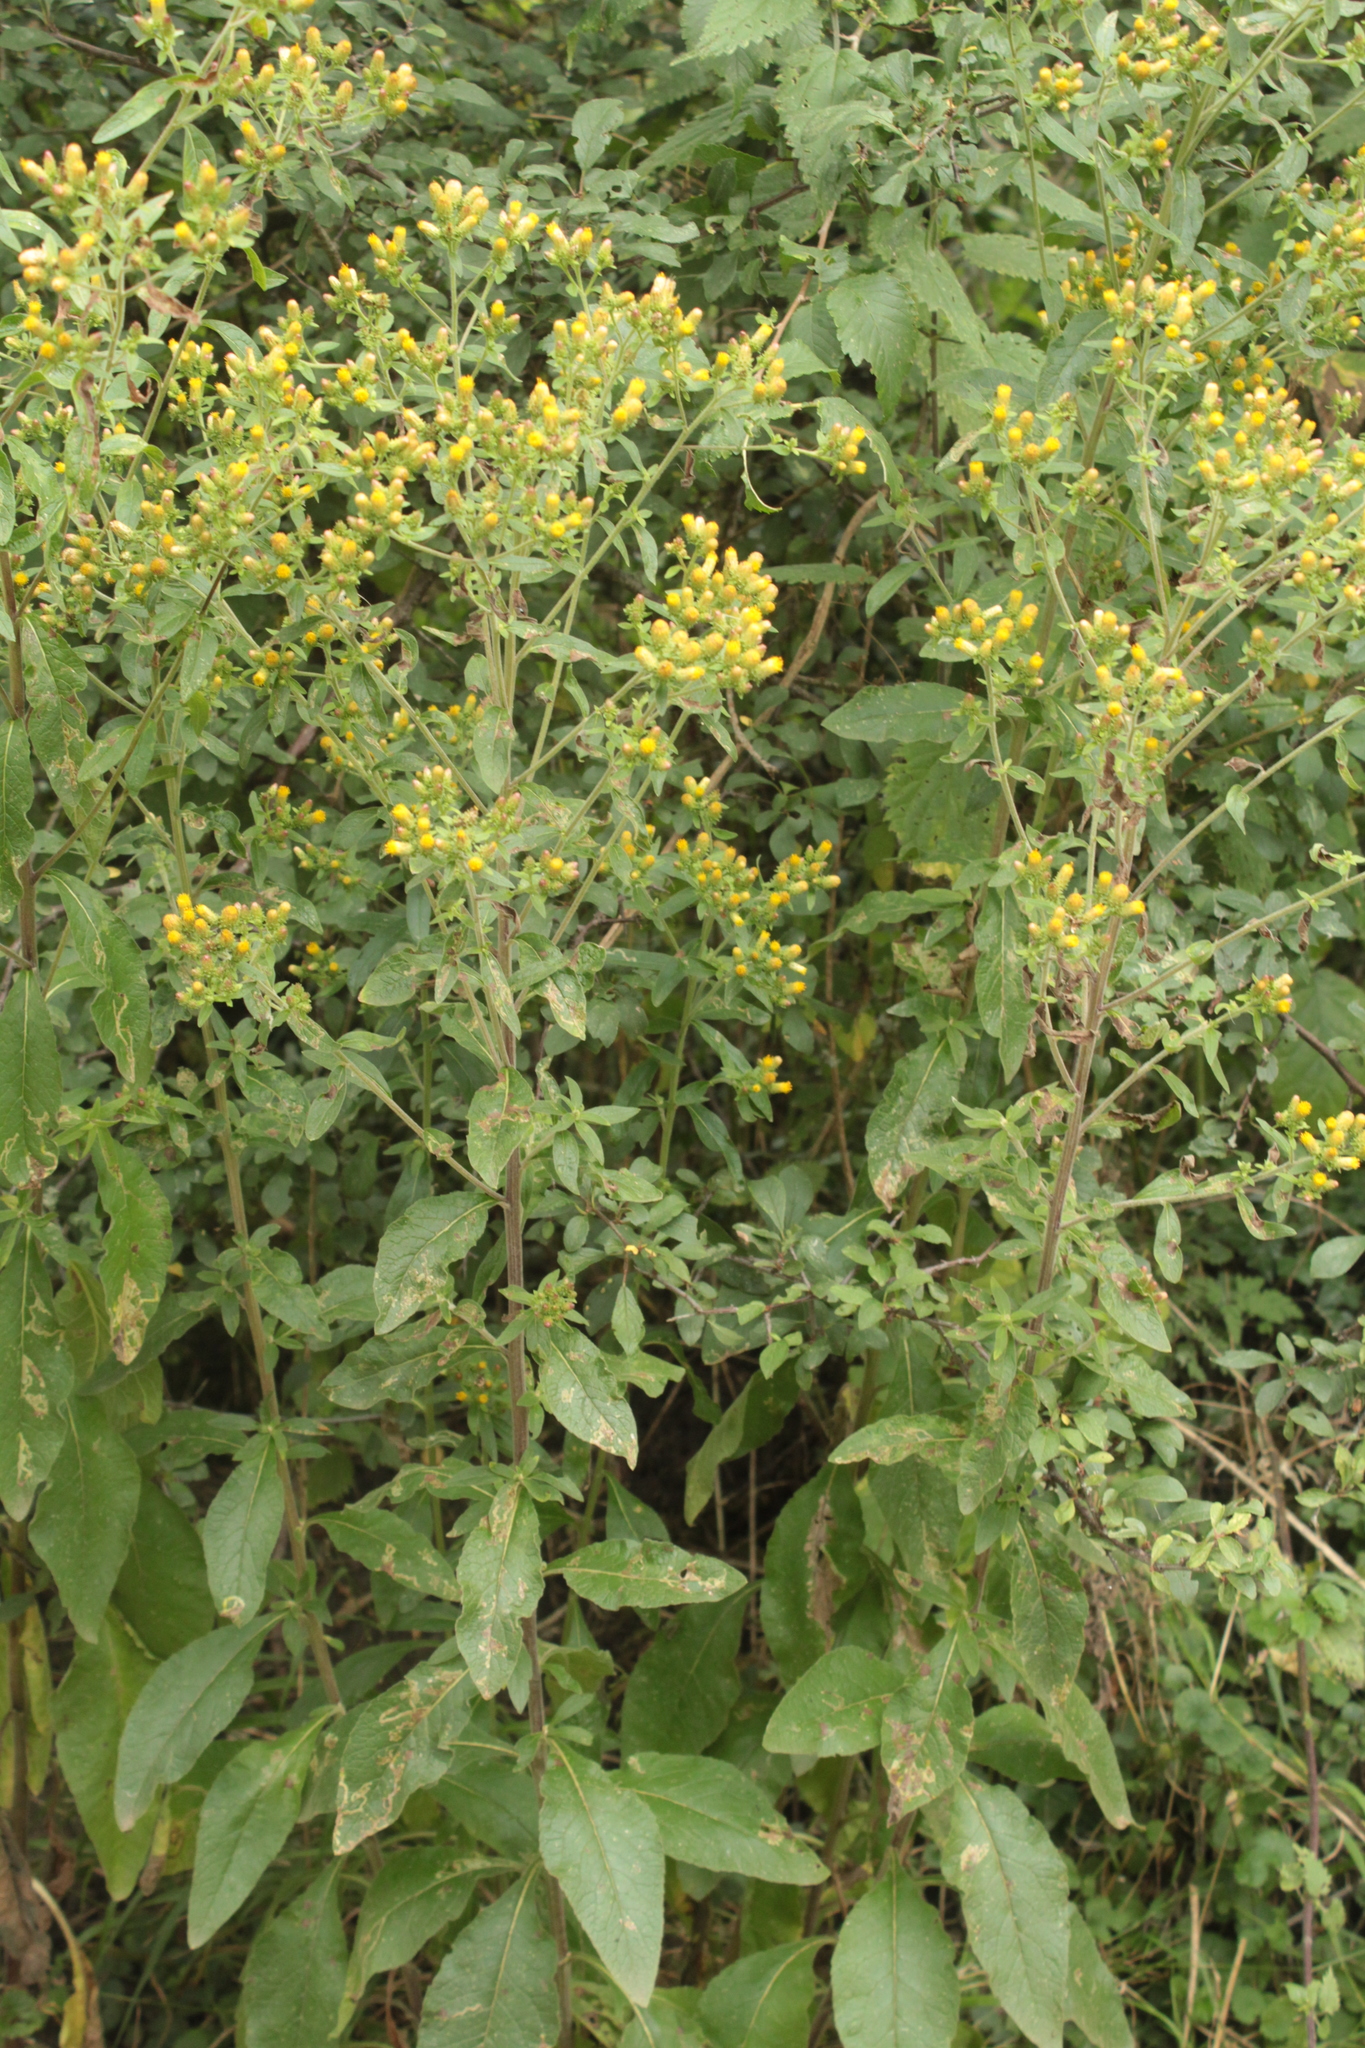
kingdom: Plantae
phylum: Tracheophyta
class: Magnoliopsida
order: Asterales
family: Asteraceae
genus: Pentanema
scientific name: Pentanema squarrosum
